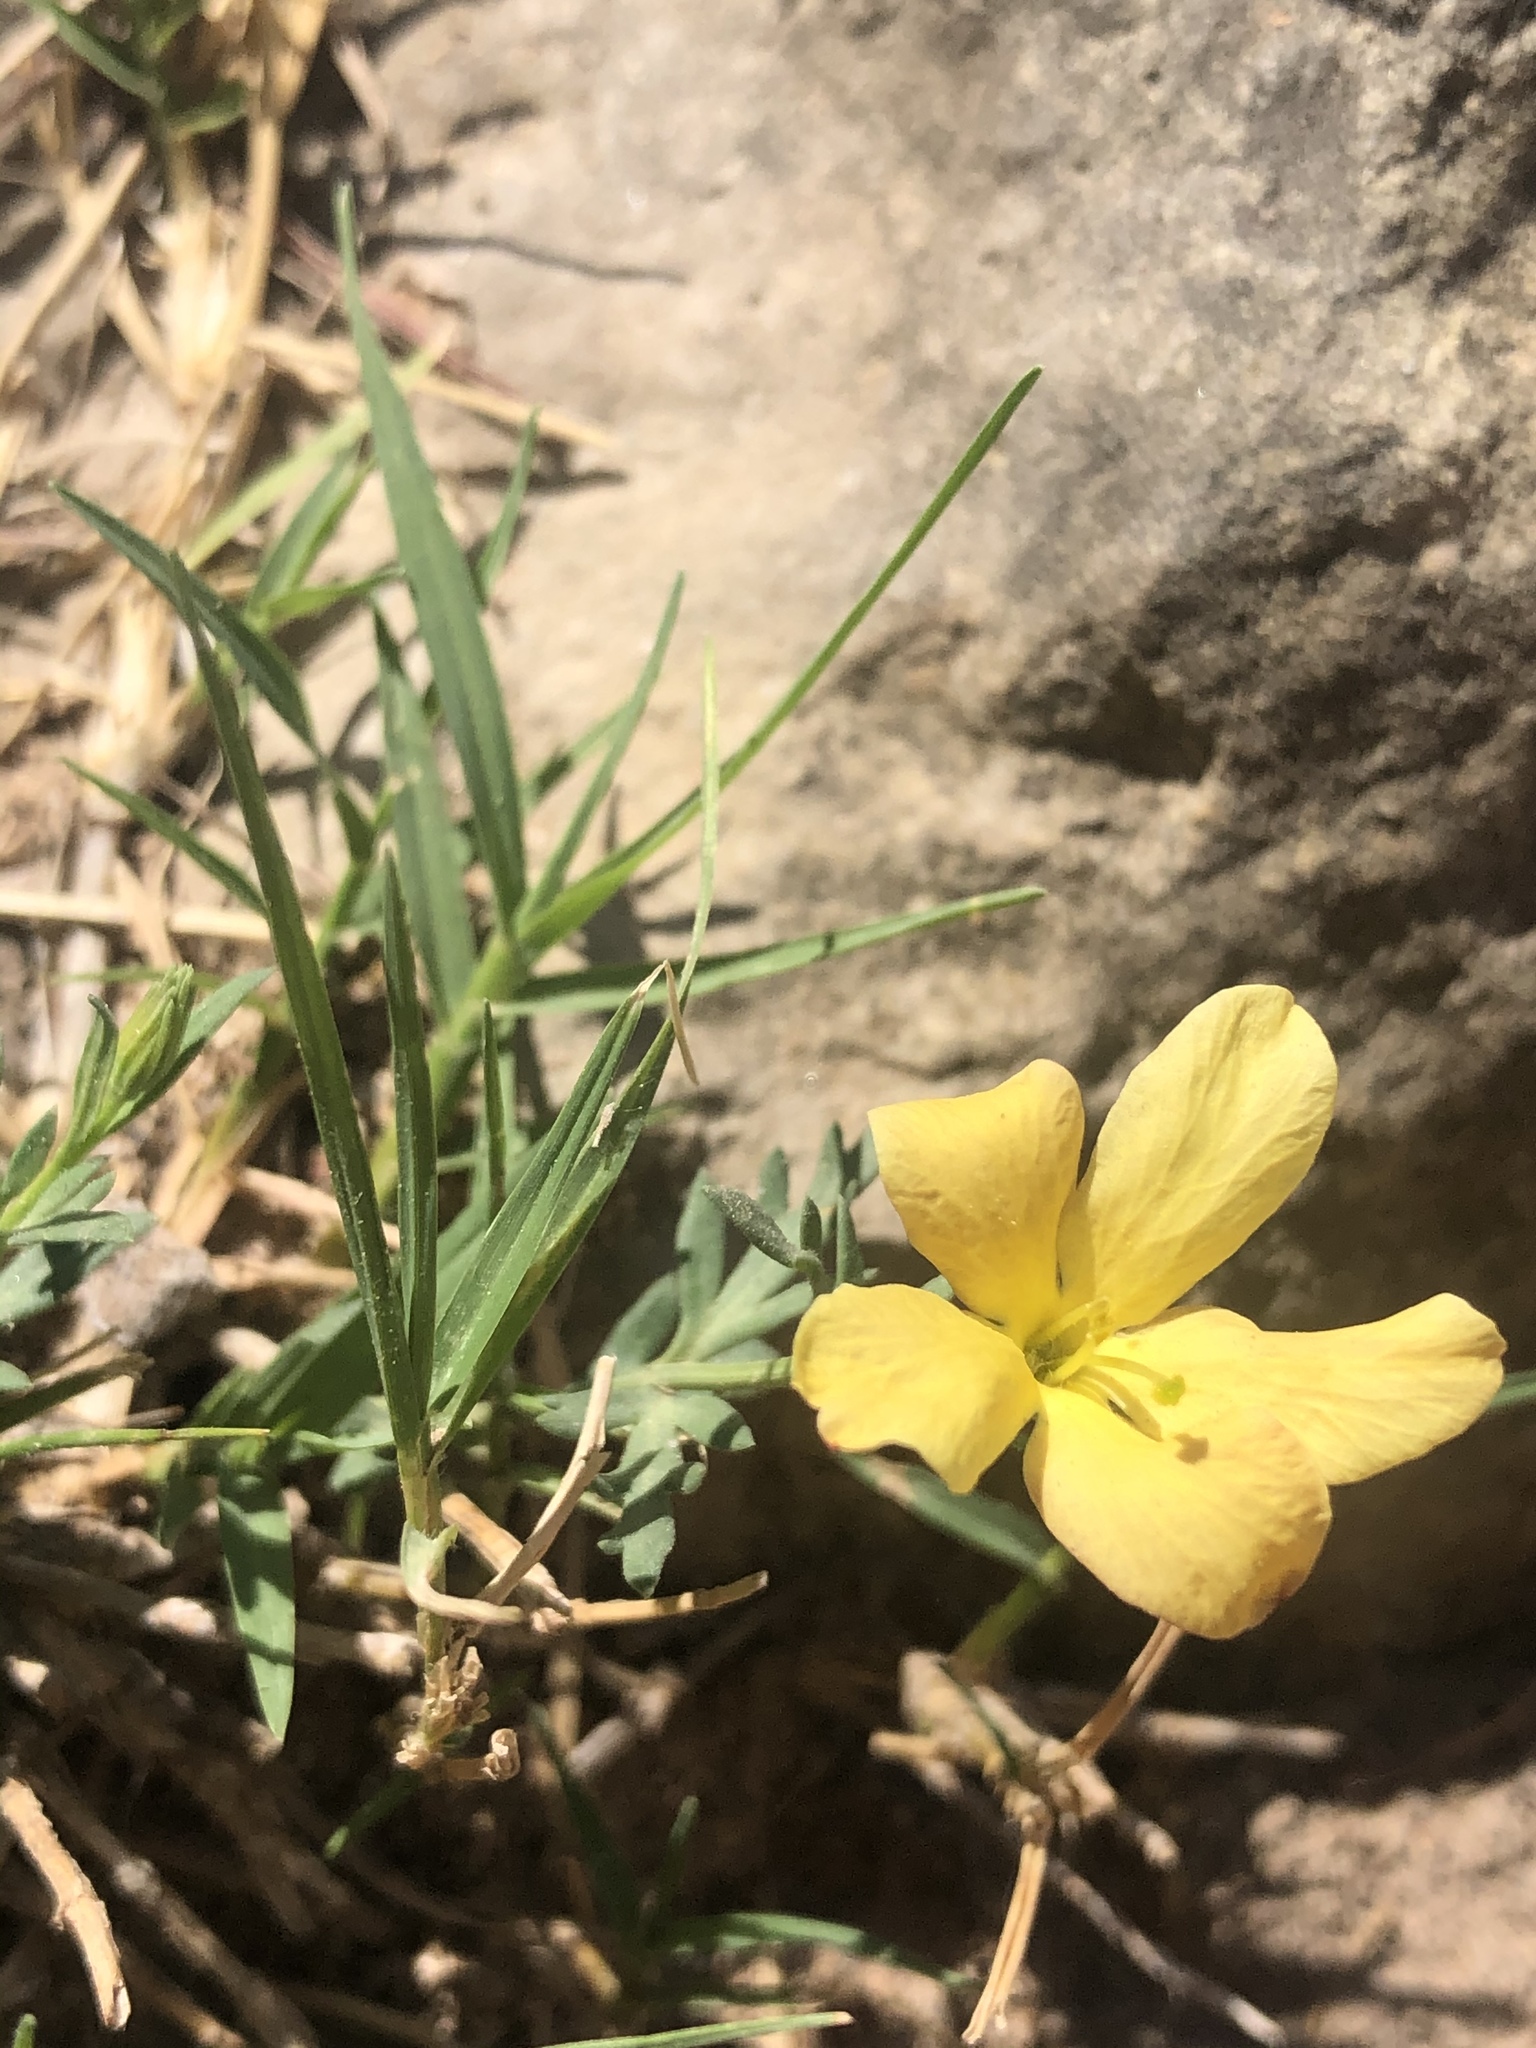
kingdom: Plantae
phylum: Tracheophyta
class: Magnoliopsida
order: Lamiales
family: Oleaceae
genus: Menodora
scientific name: Menodora heterophylla
